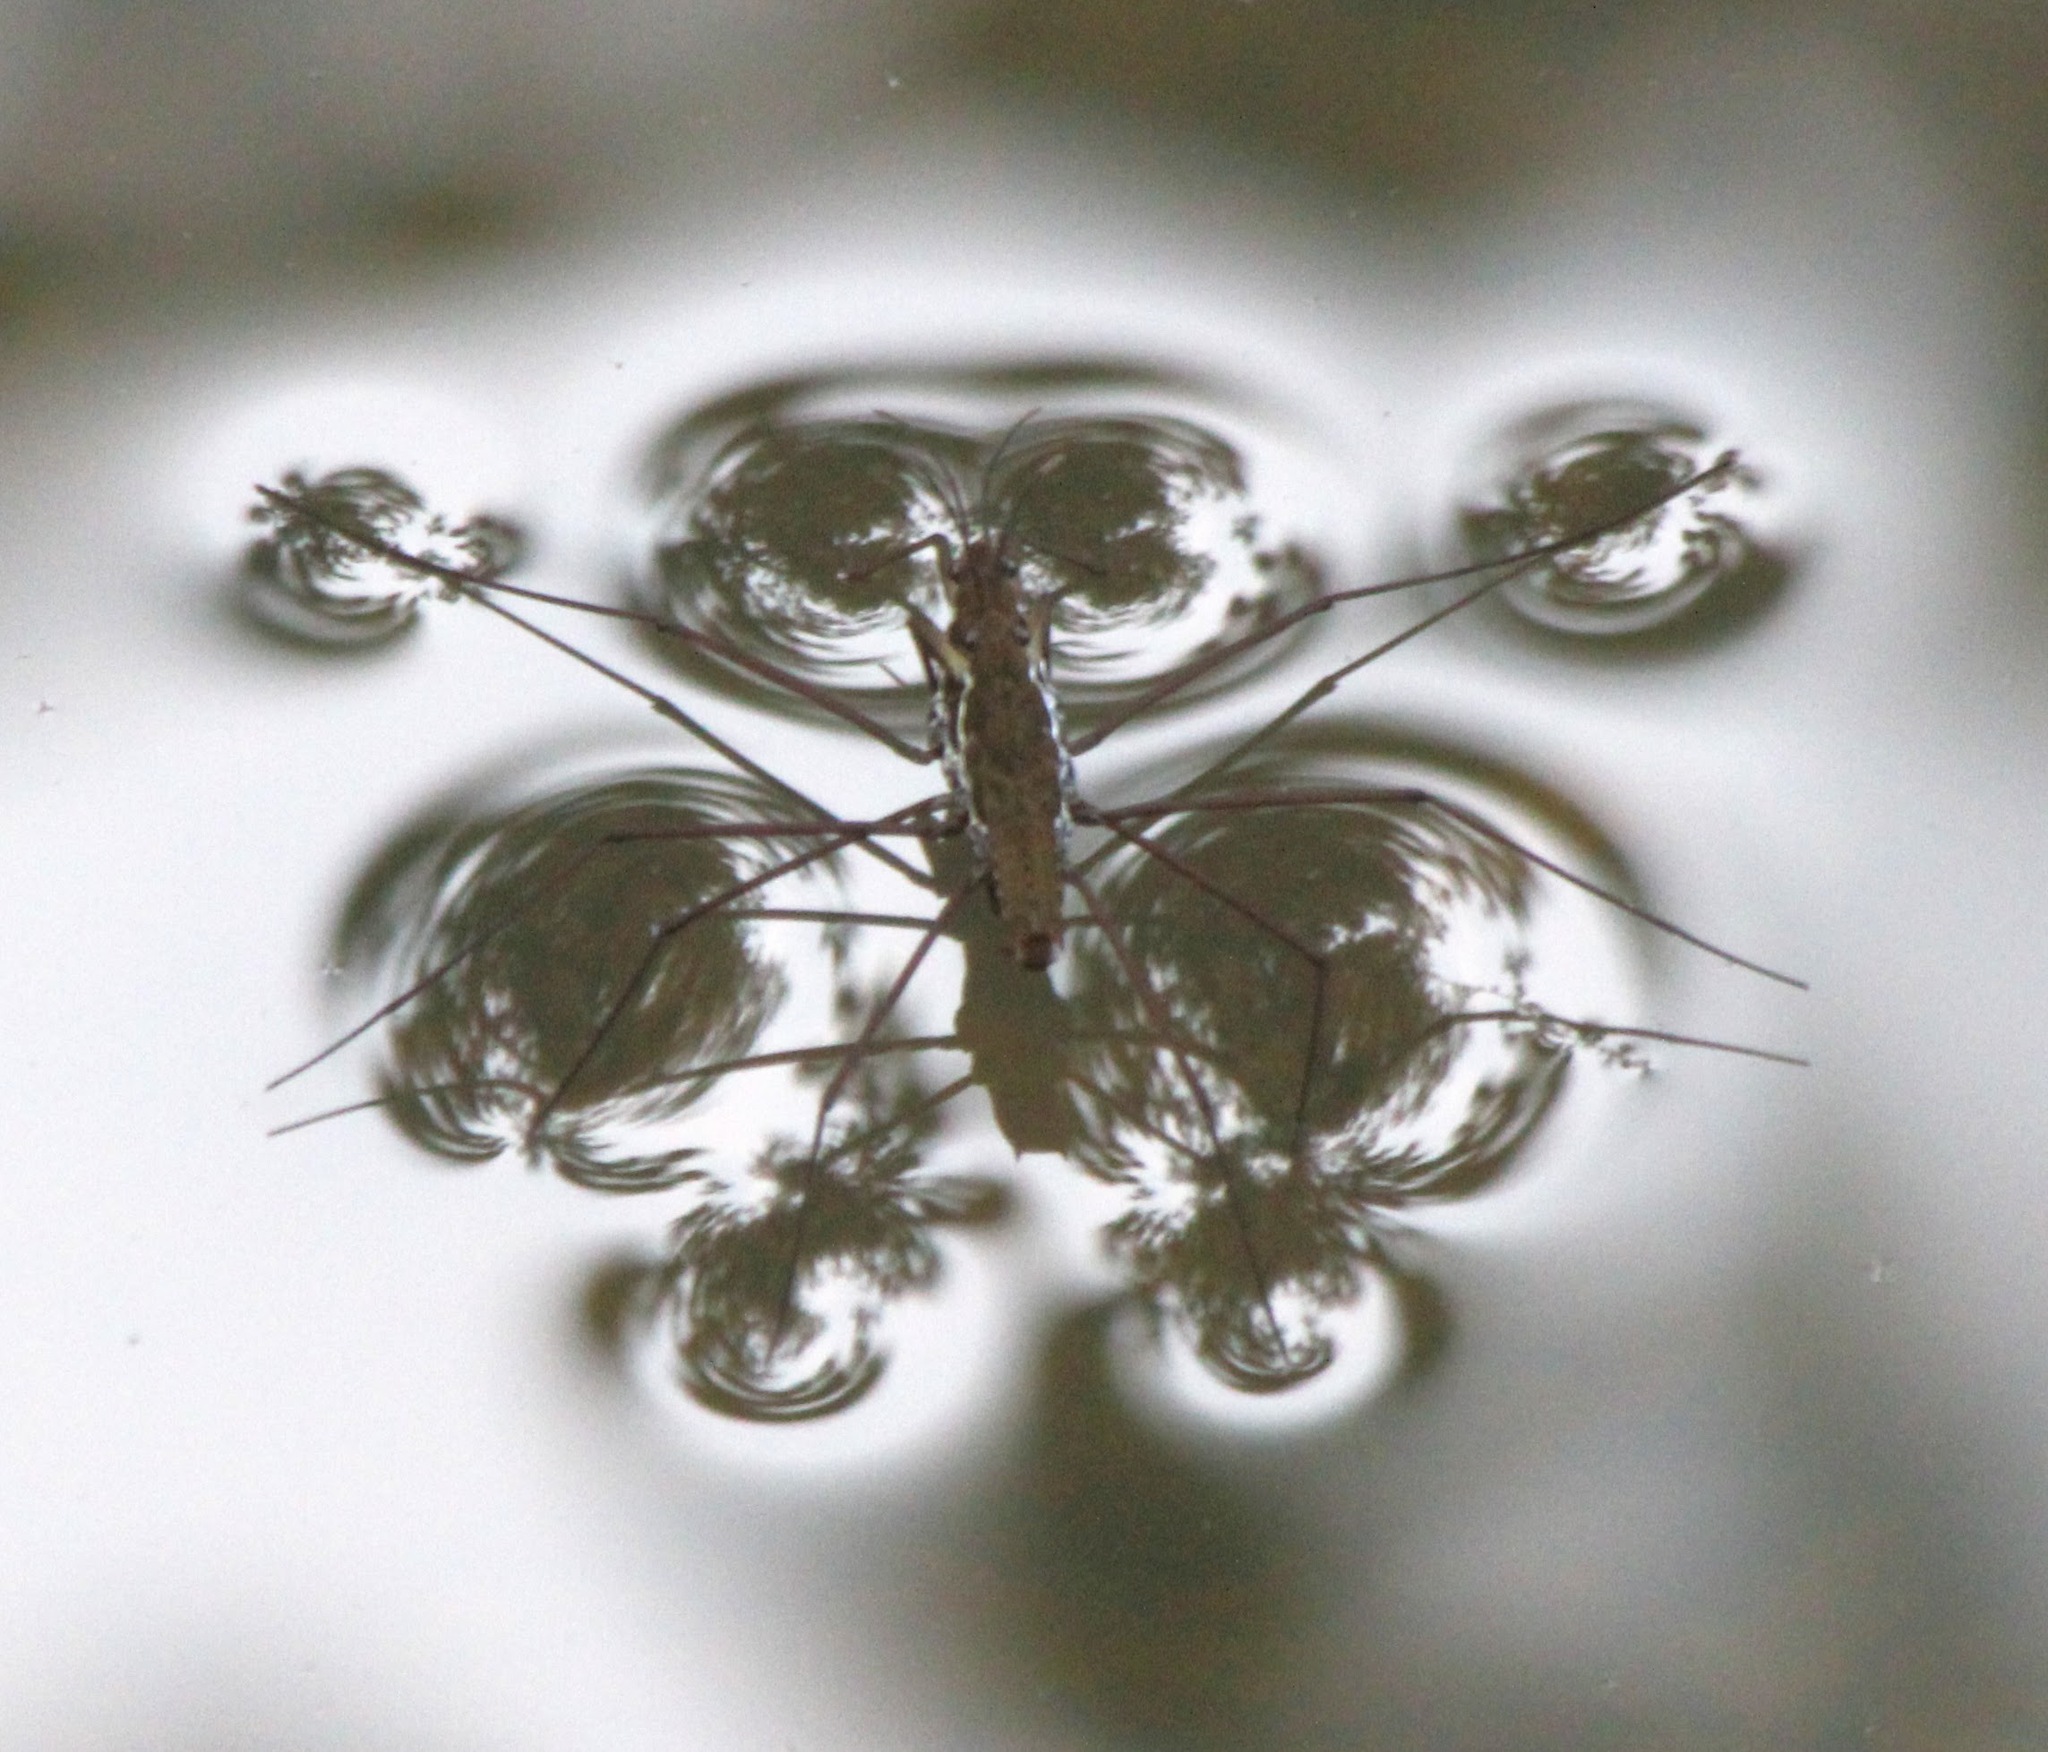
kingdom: Animalia
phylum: Arthropoda
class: Insecta
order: Hemiptera
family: Gerridae
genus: Aquarius
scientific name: Aquarius remigis
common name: Common water strider
